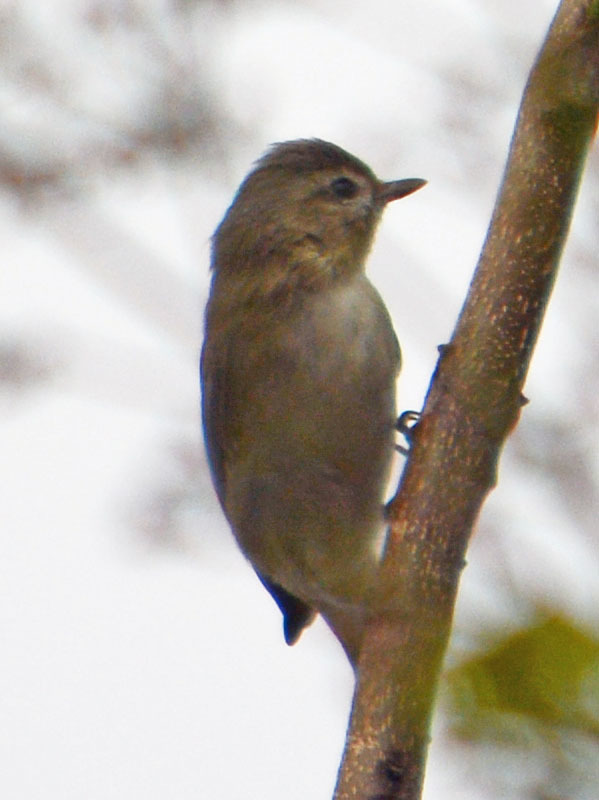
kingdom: Animalia
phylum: Chordata
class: Aves
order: Passeriformes
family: Vireonidae
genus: Vireo
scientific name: Vireo gilvus
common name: Warbling vireo
